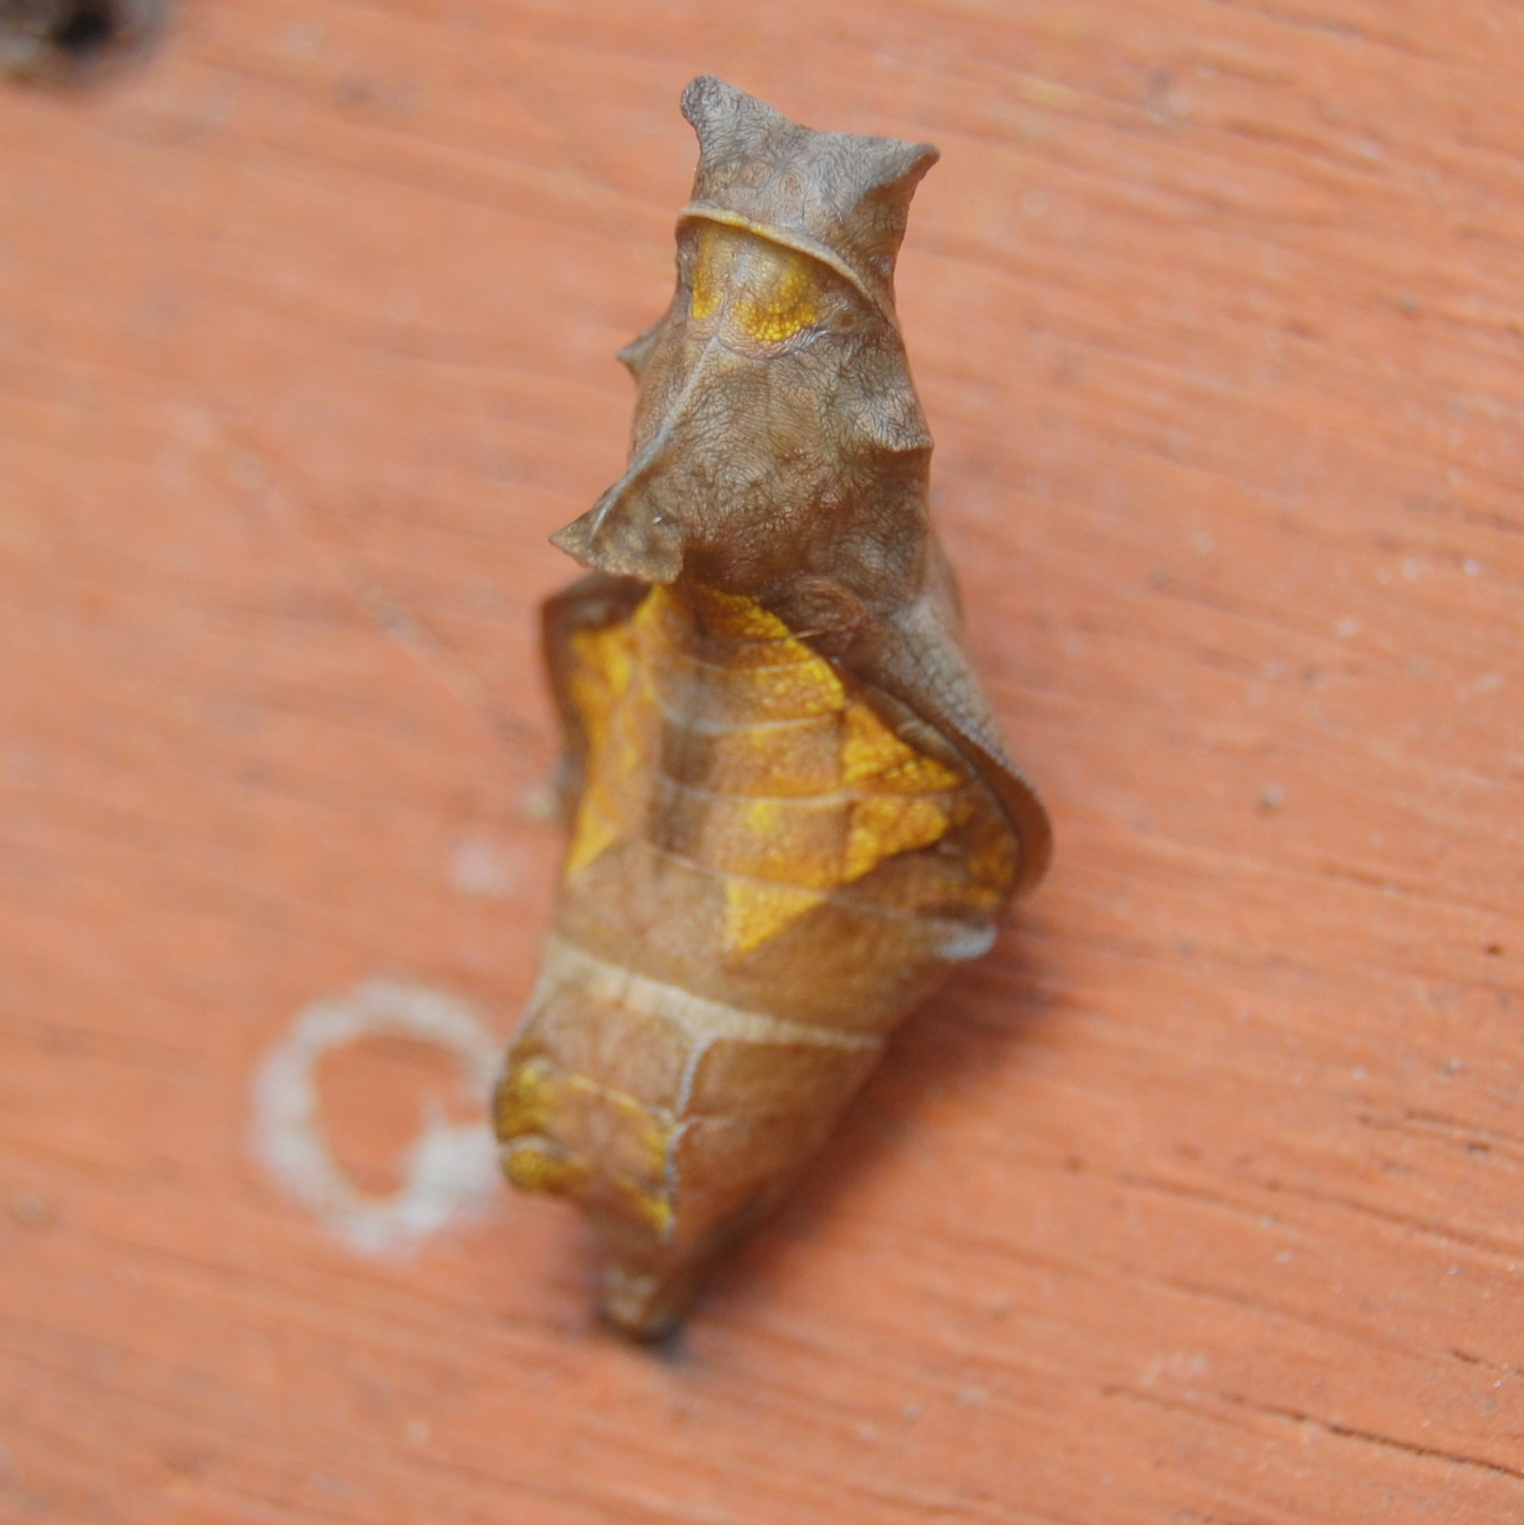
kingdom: Animalia
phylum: Arthropoda
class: Insecta
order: Lepidoptera
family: Papilionidae
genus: Battus
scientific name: Battus polydamas
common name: Polydamas swallowtail
